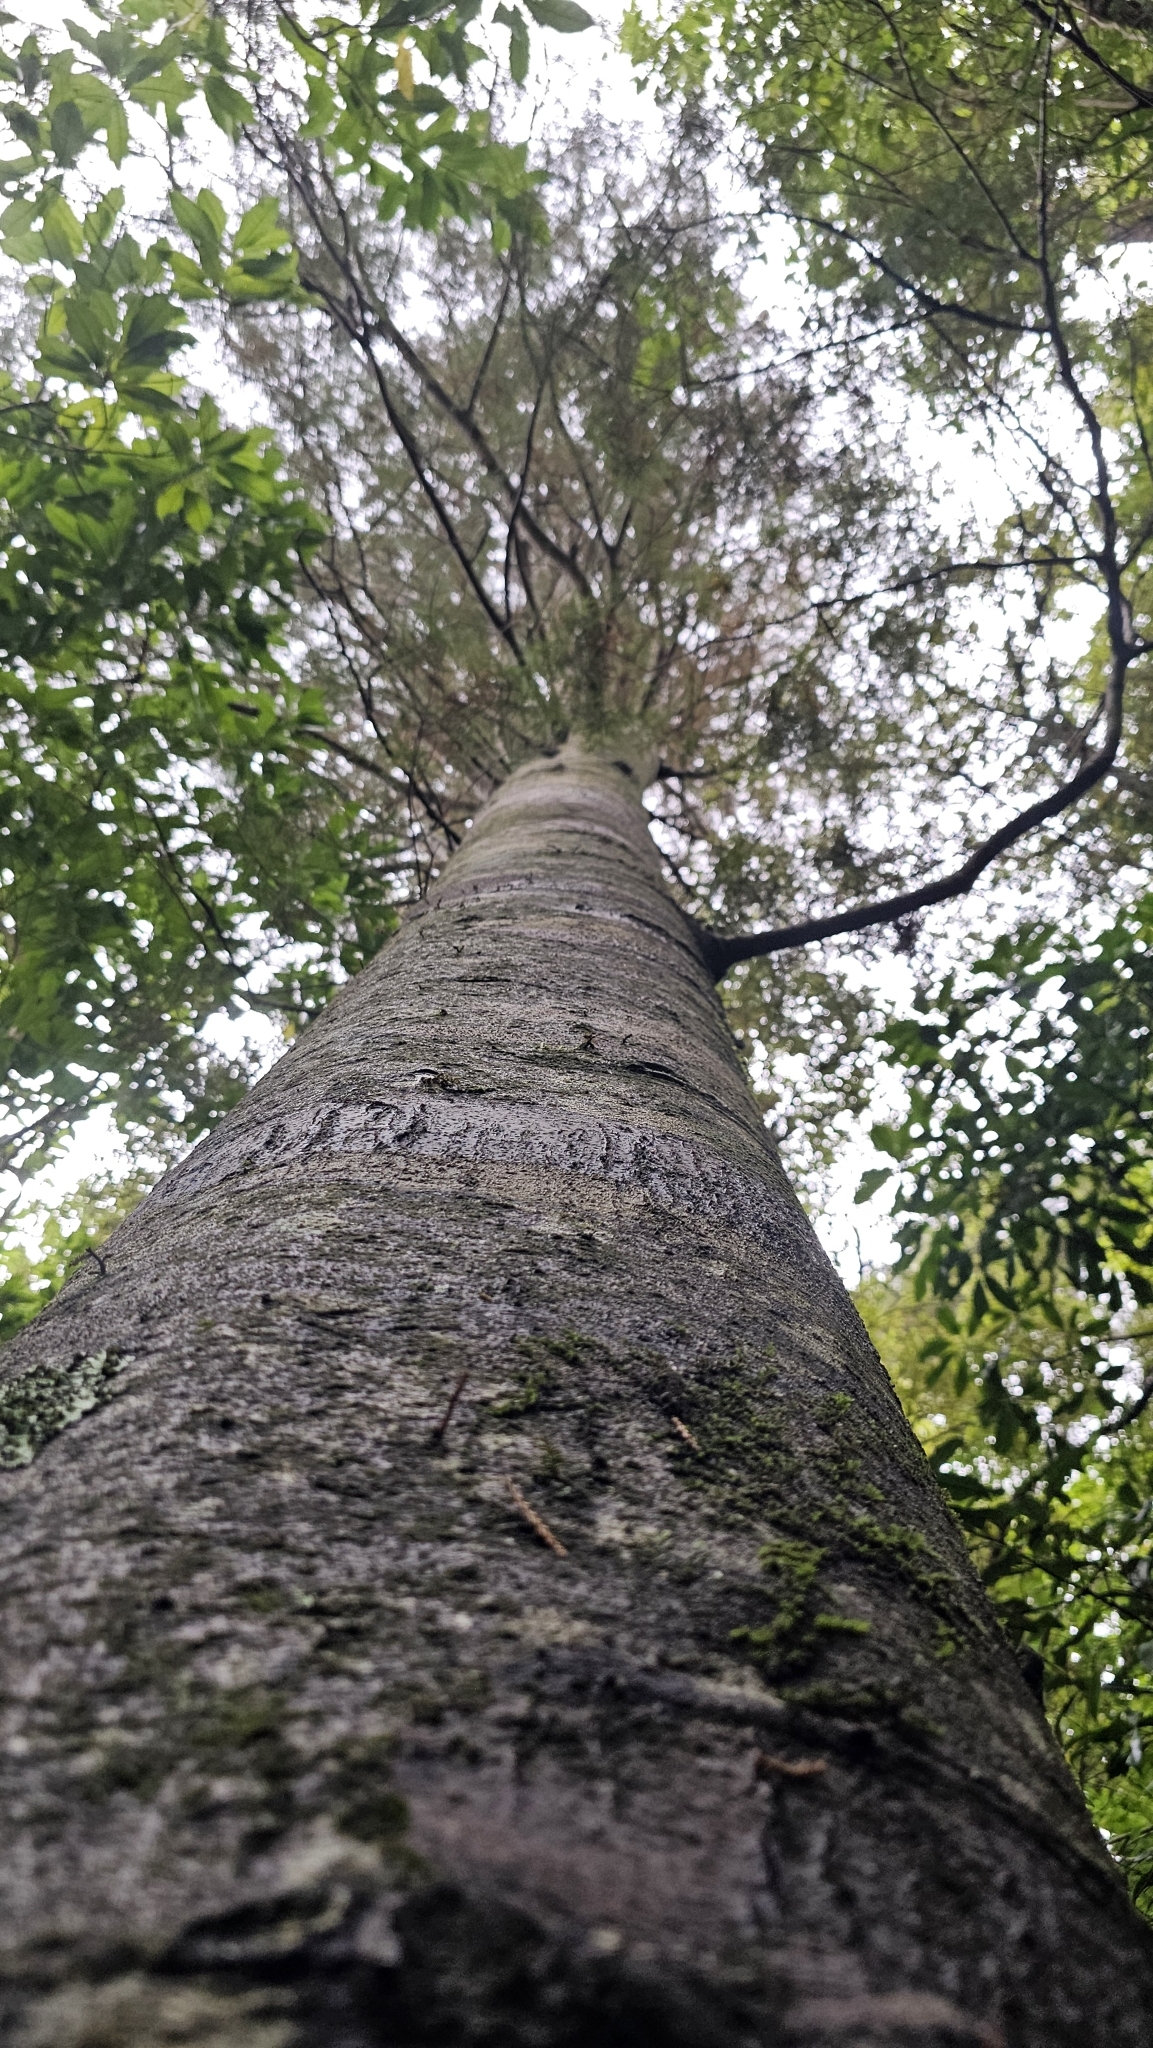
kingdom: Plantae
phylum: Tracheophyta
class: Pinopsida
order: Pinales
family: Podocarpaceae
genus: Dacrycarpus
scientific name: Dacrycarpus dacrydioides
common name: White pine
